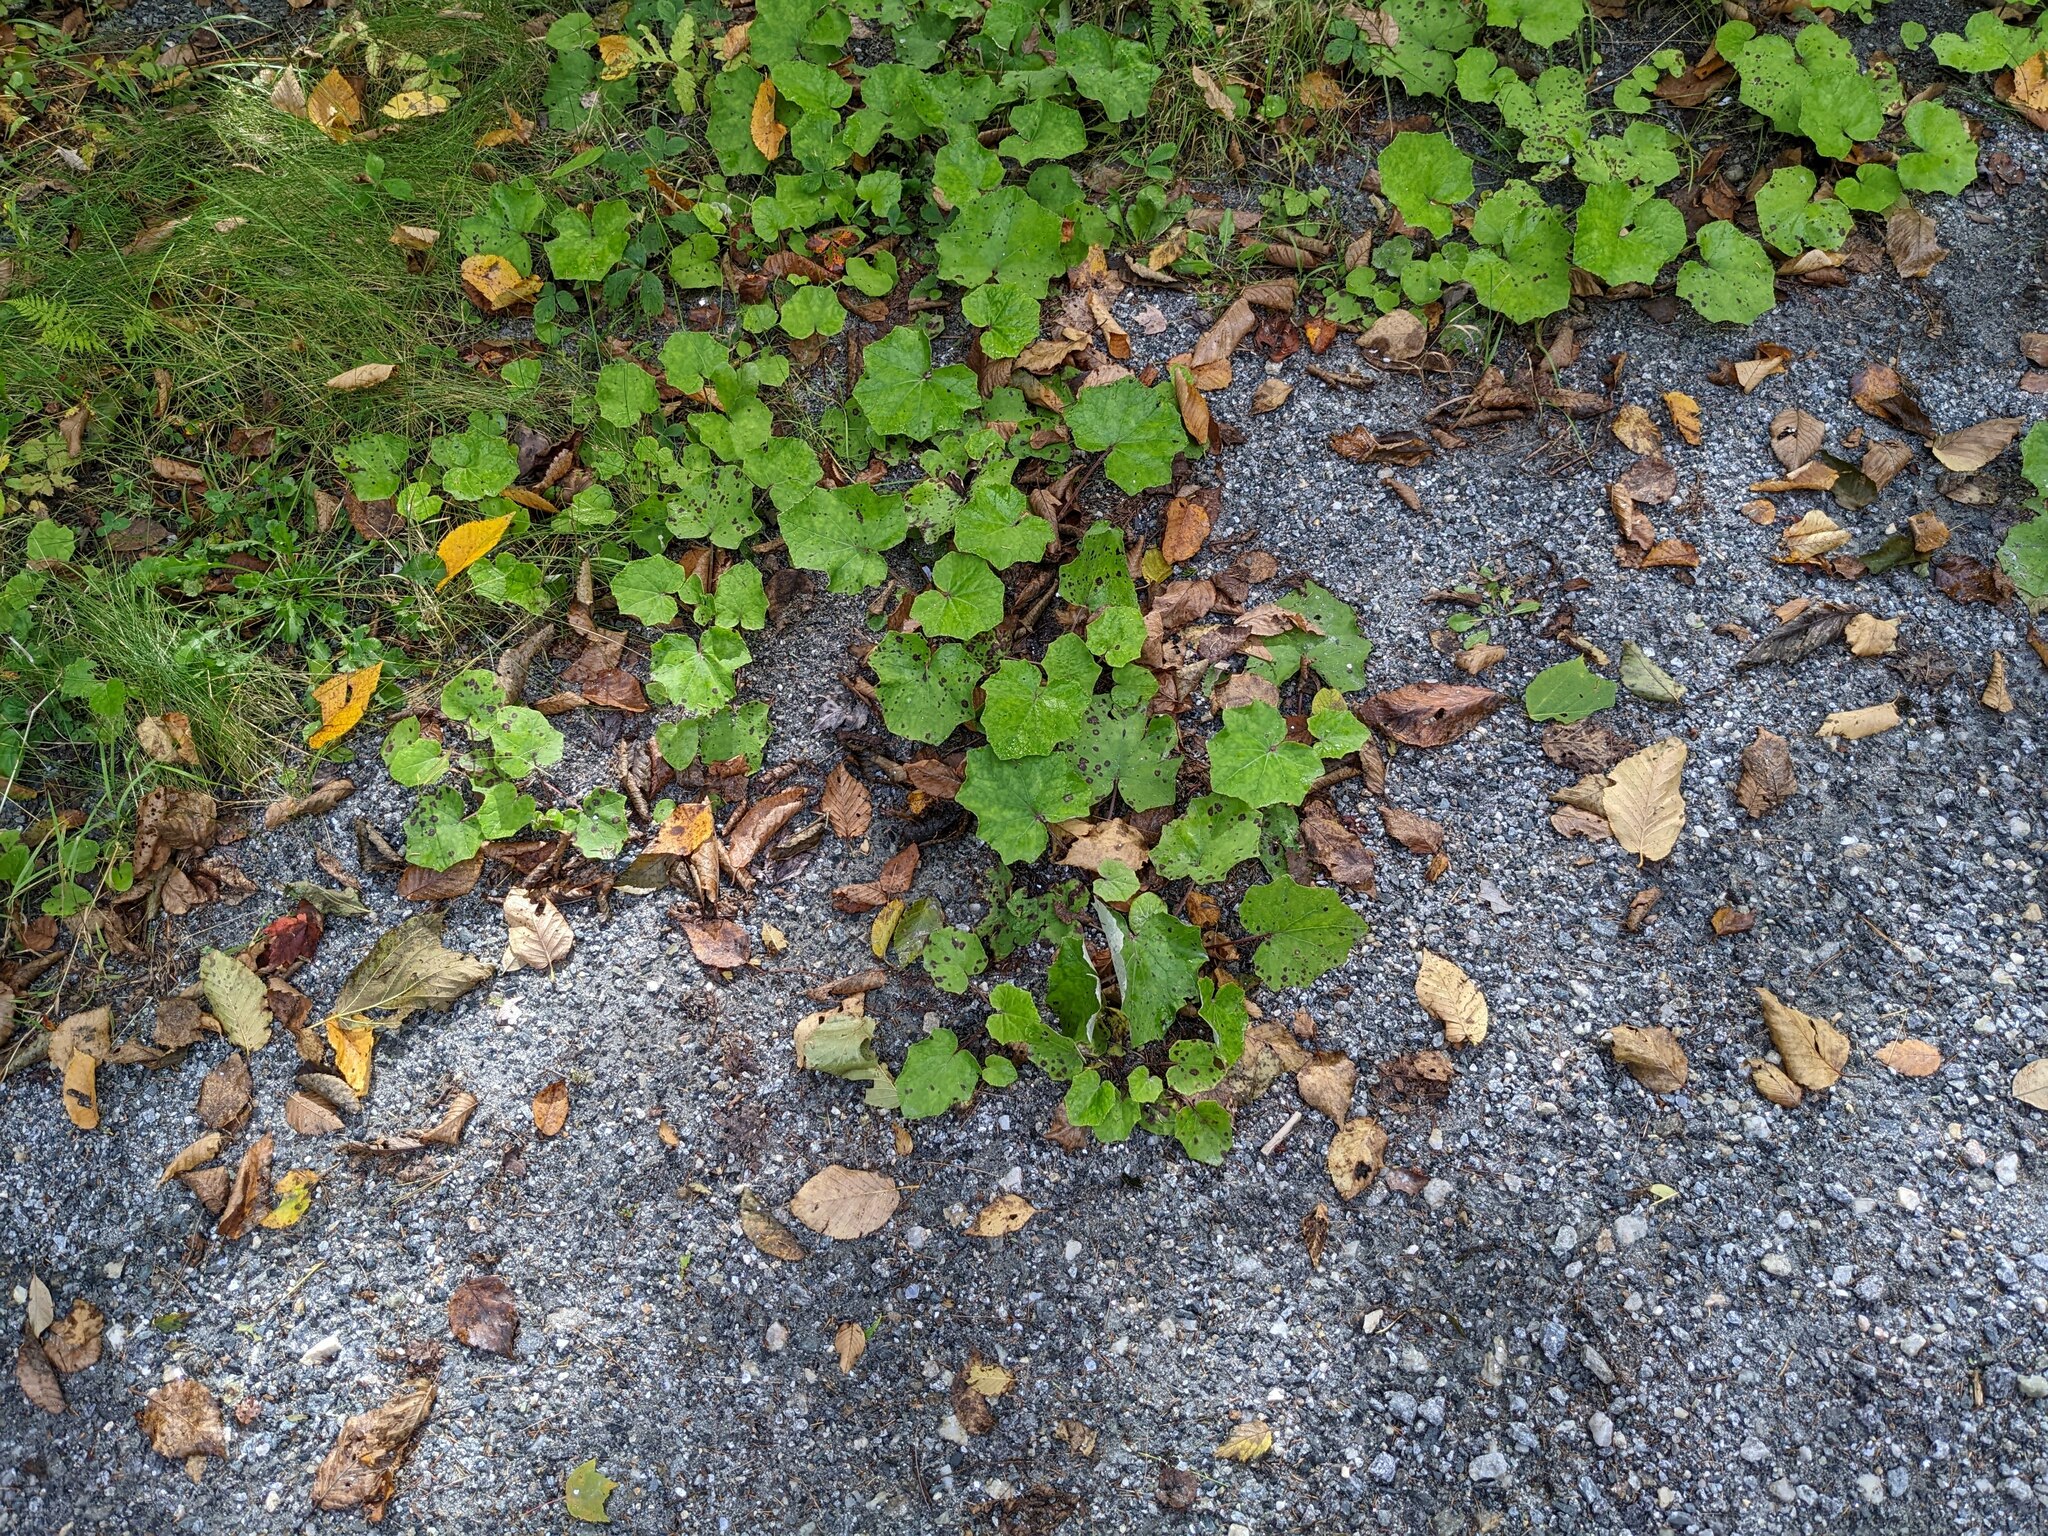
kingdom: Plantae
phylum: Tracheophyta
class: Magnoliopsida
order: Asterales
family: Asteraceae
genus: Tussilago
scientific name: Tussilago farfara
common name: Coltsfoot
